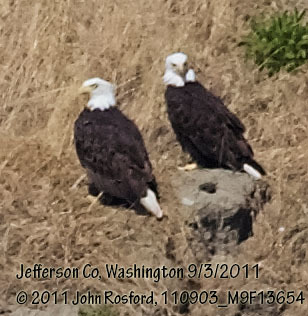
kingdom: Animalia
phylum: Chordata
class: Aves
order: Accipitriformes
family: Accipitridae
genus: Haliaeetus
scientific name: Haliaeetus leucocephalus
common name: Bald eagle
